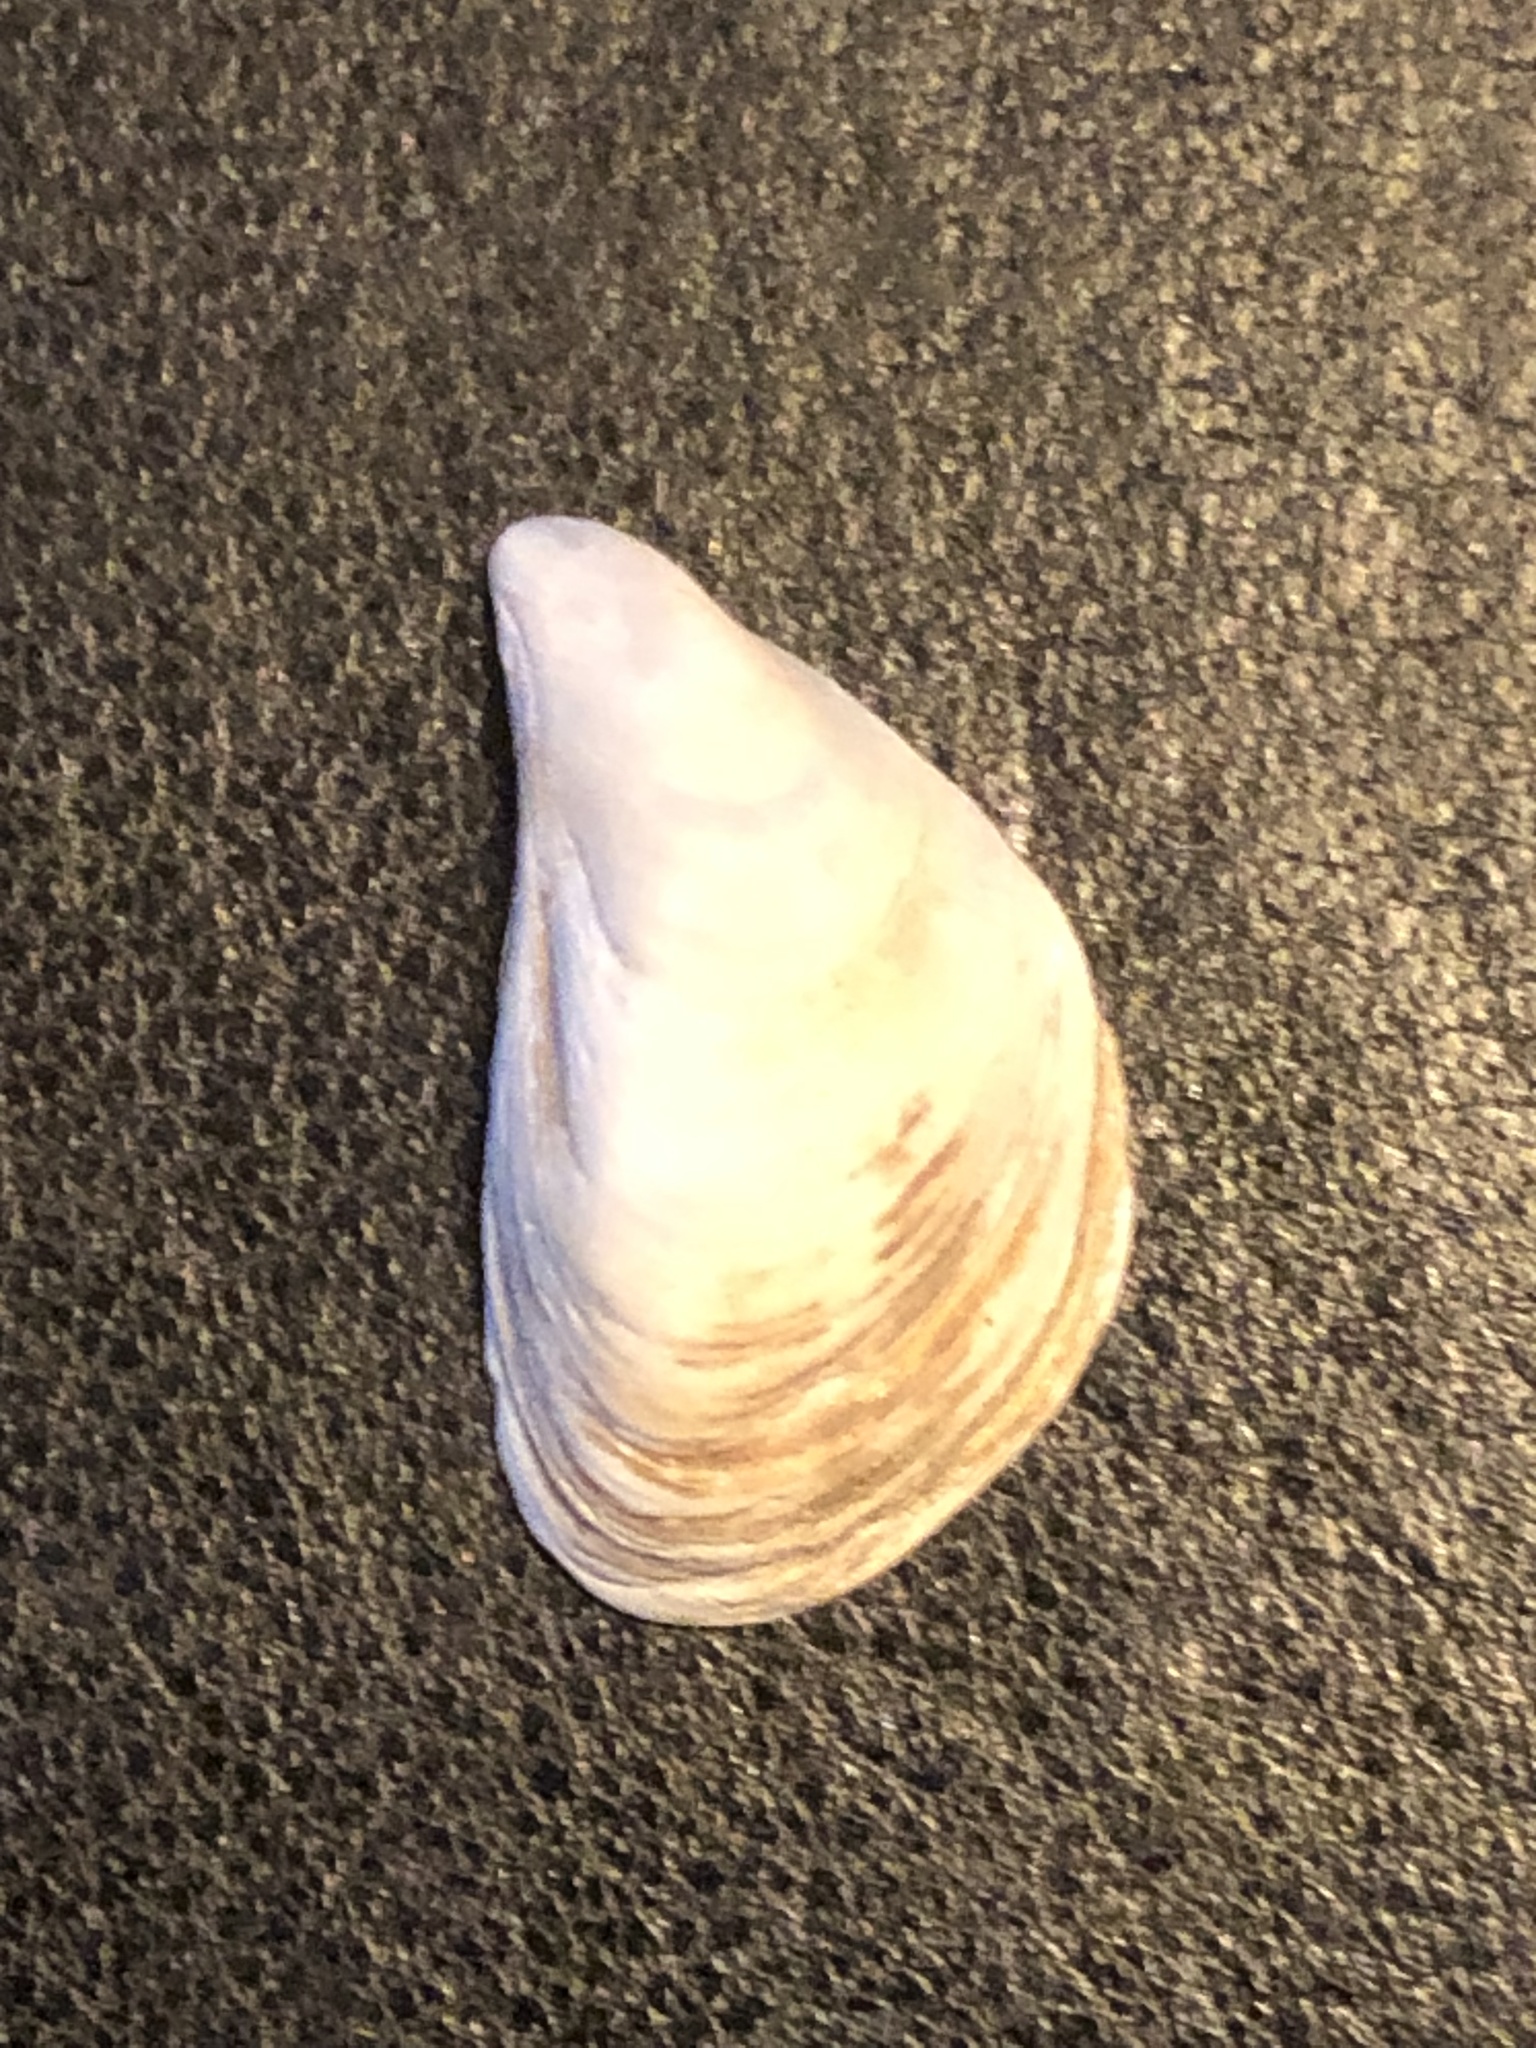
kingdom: Animalia
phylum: Mollusca
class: Bivalvia
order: Myida
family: Dreissenidae
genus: Dreissena
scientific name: Dreissena bugensis
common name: Quagga mussel
